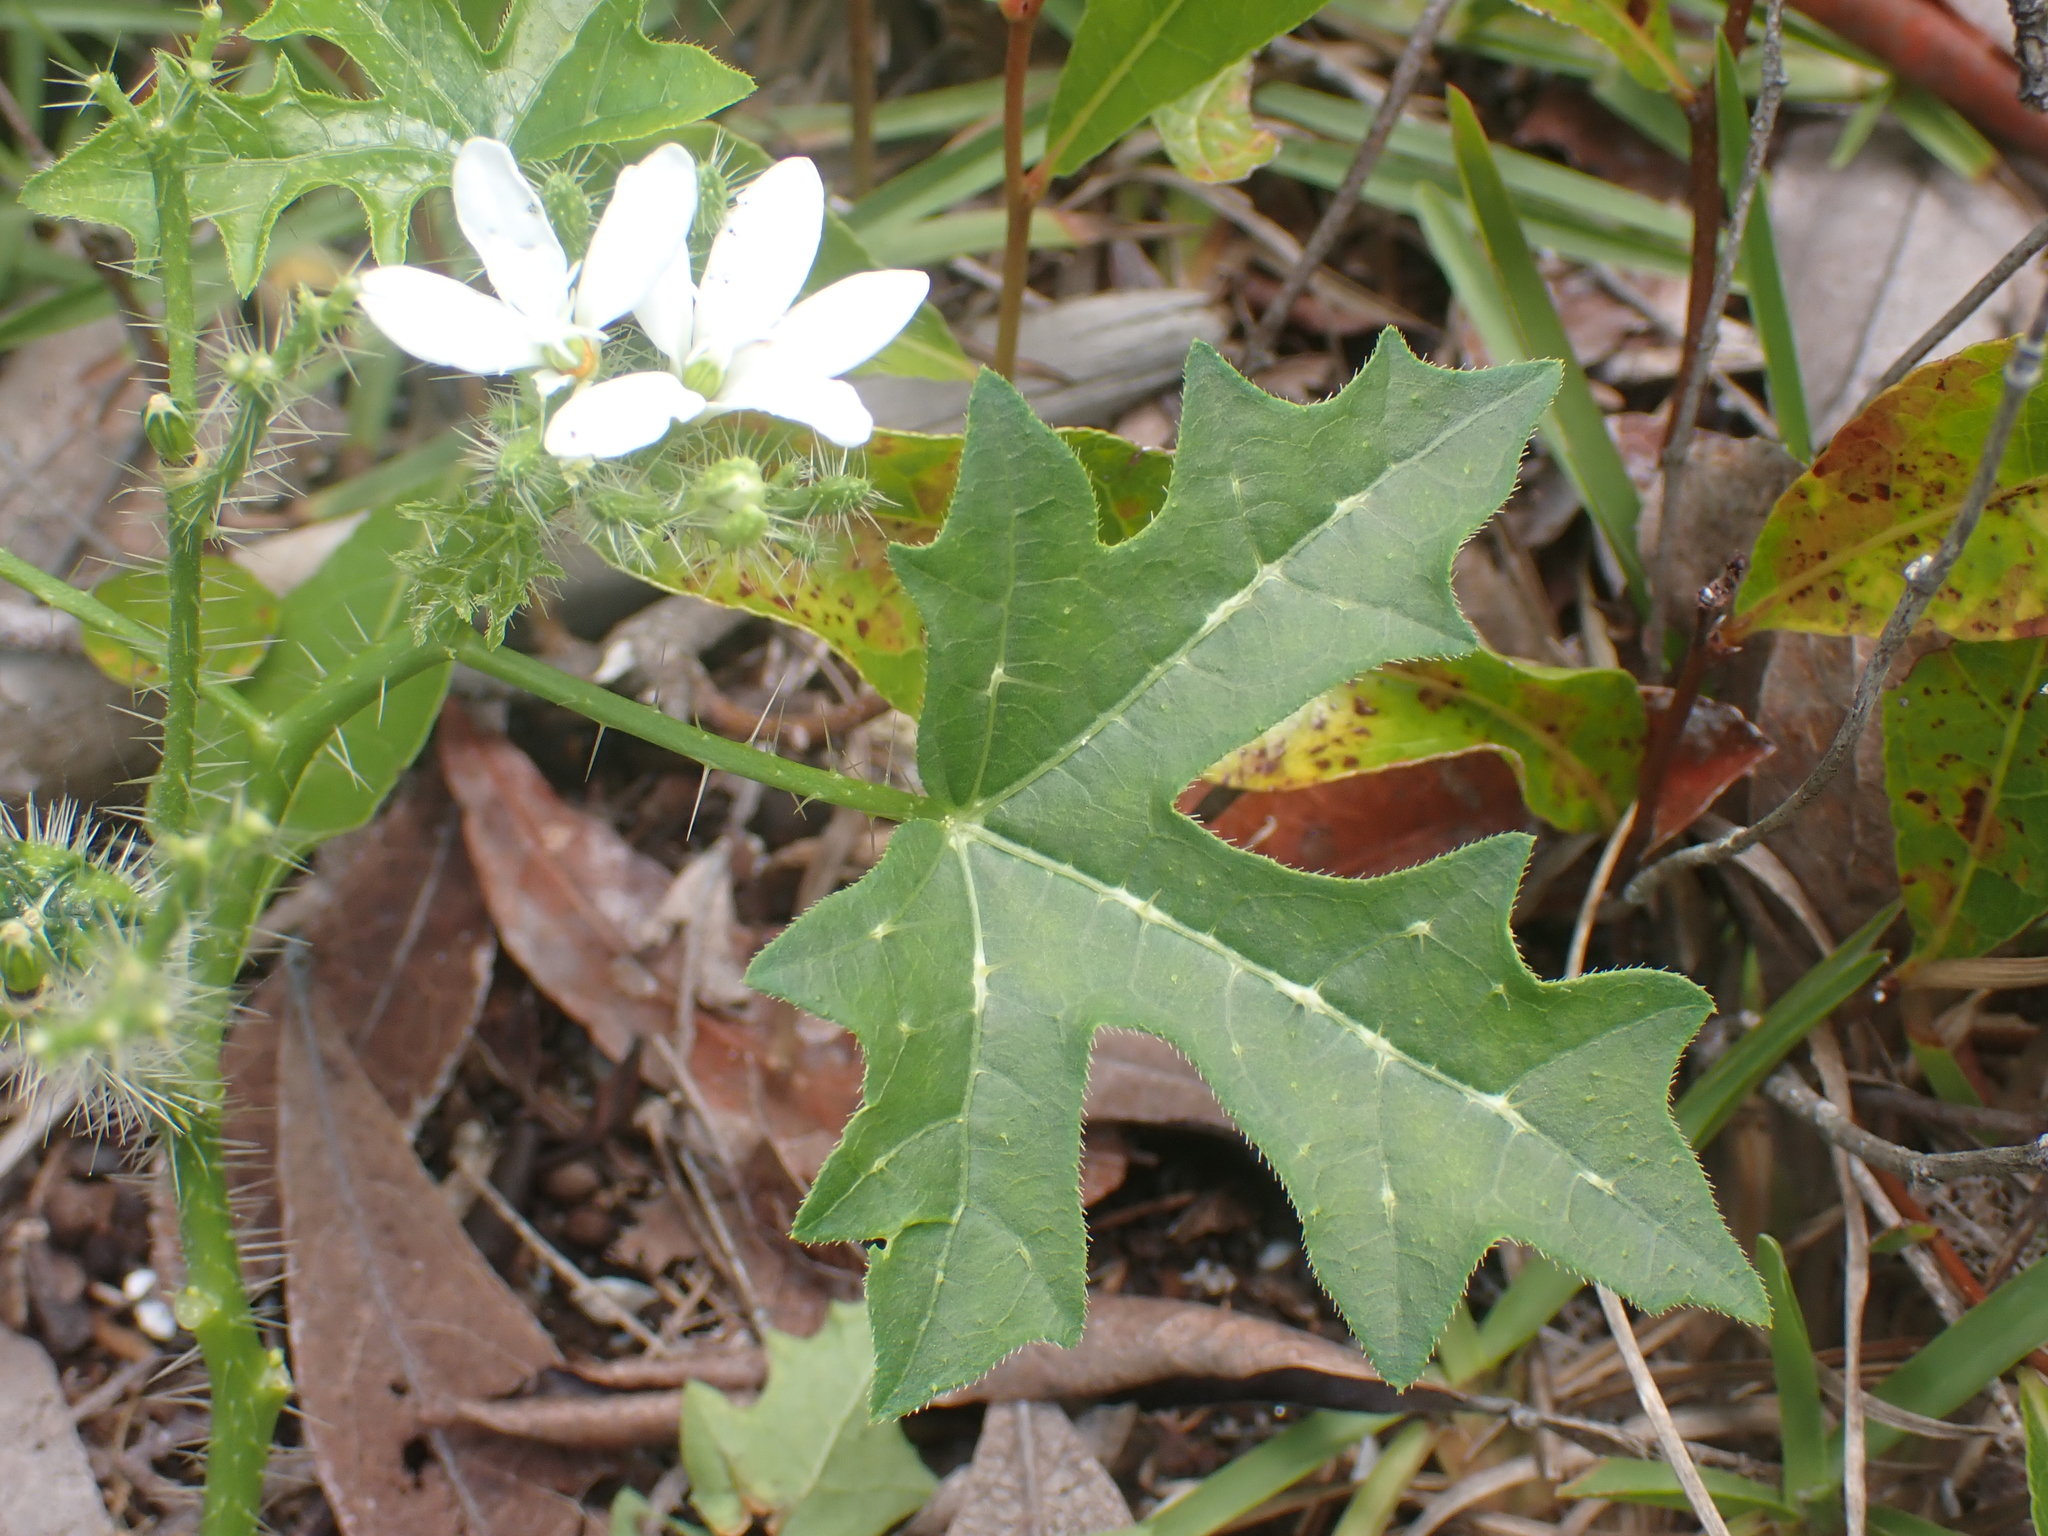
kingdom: Plantae
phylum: Tracheophyta
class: Magnoliopsida
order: Malpighiales
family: Euphorbiaceae
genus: Cnidoscolus
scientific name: Cnidoscolus stimulosus
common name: Bull-nettle
